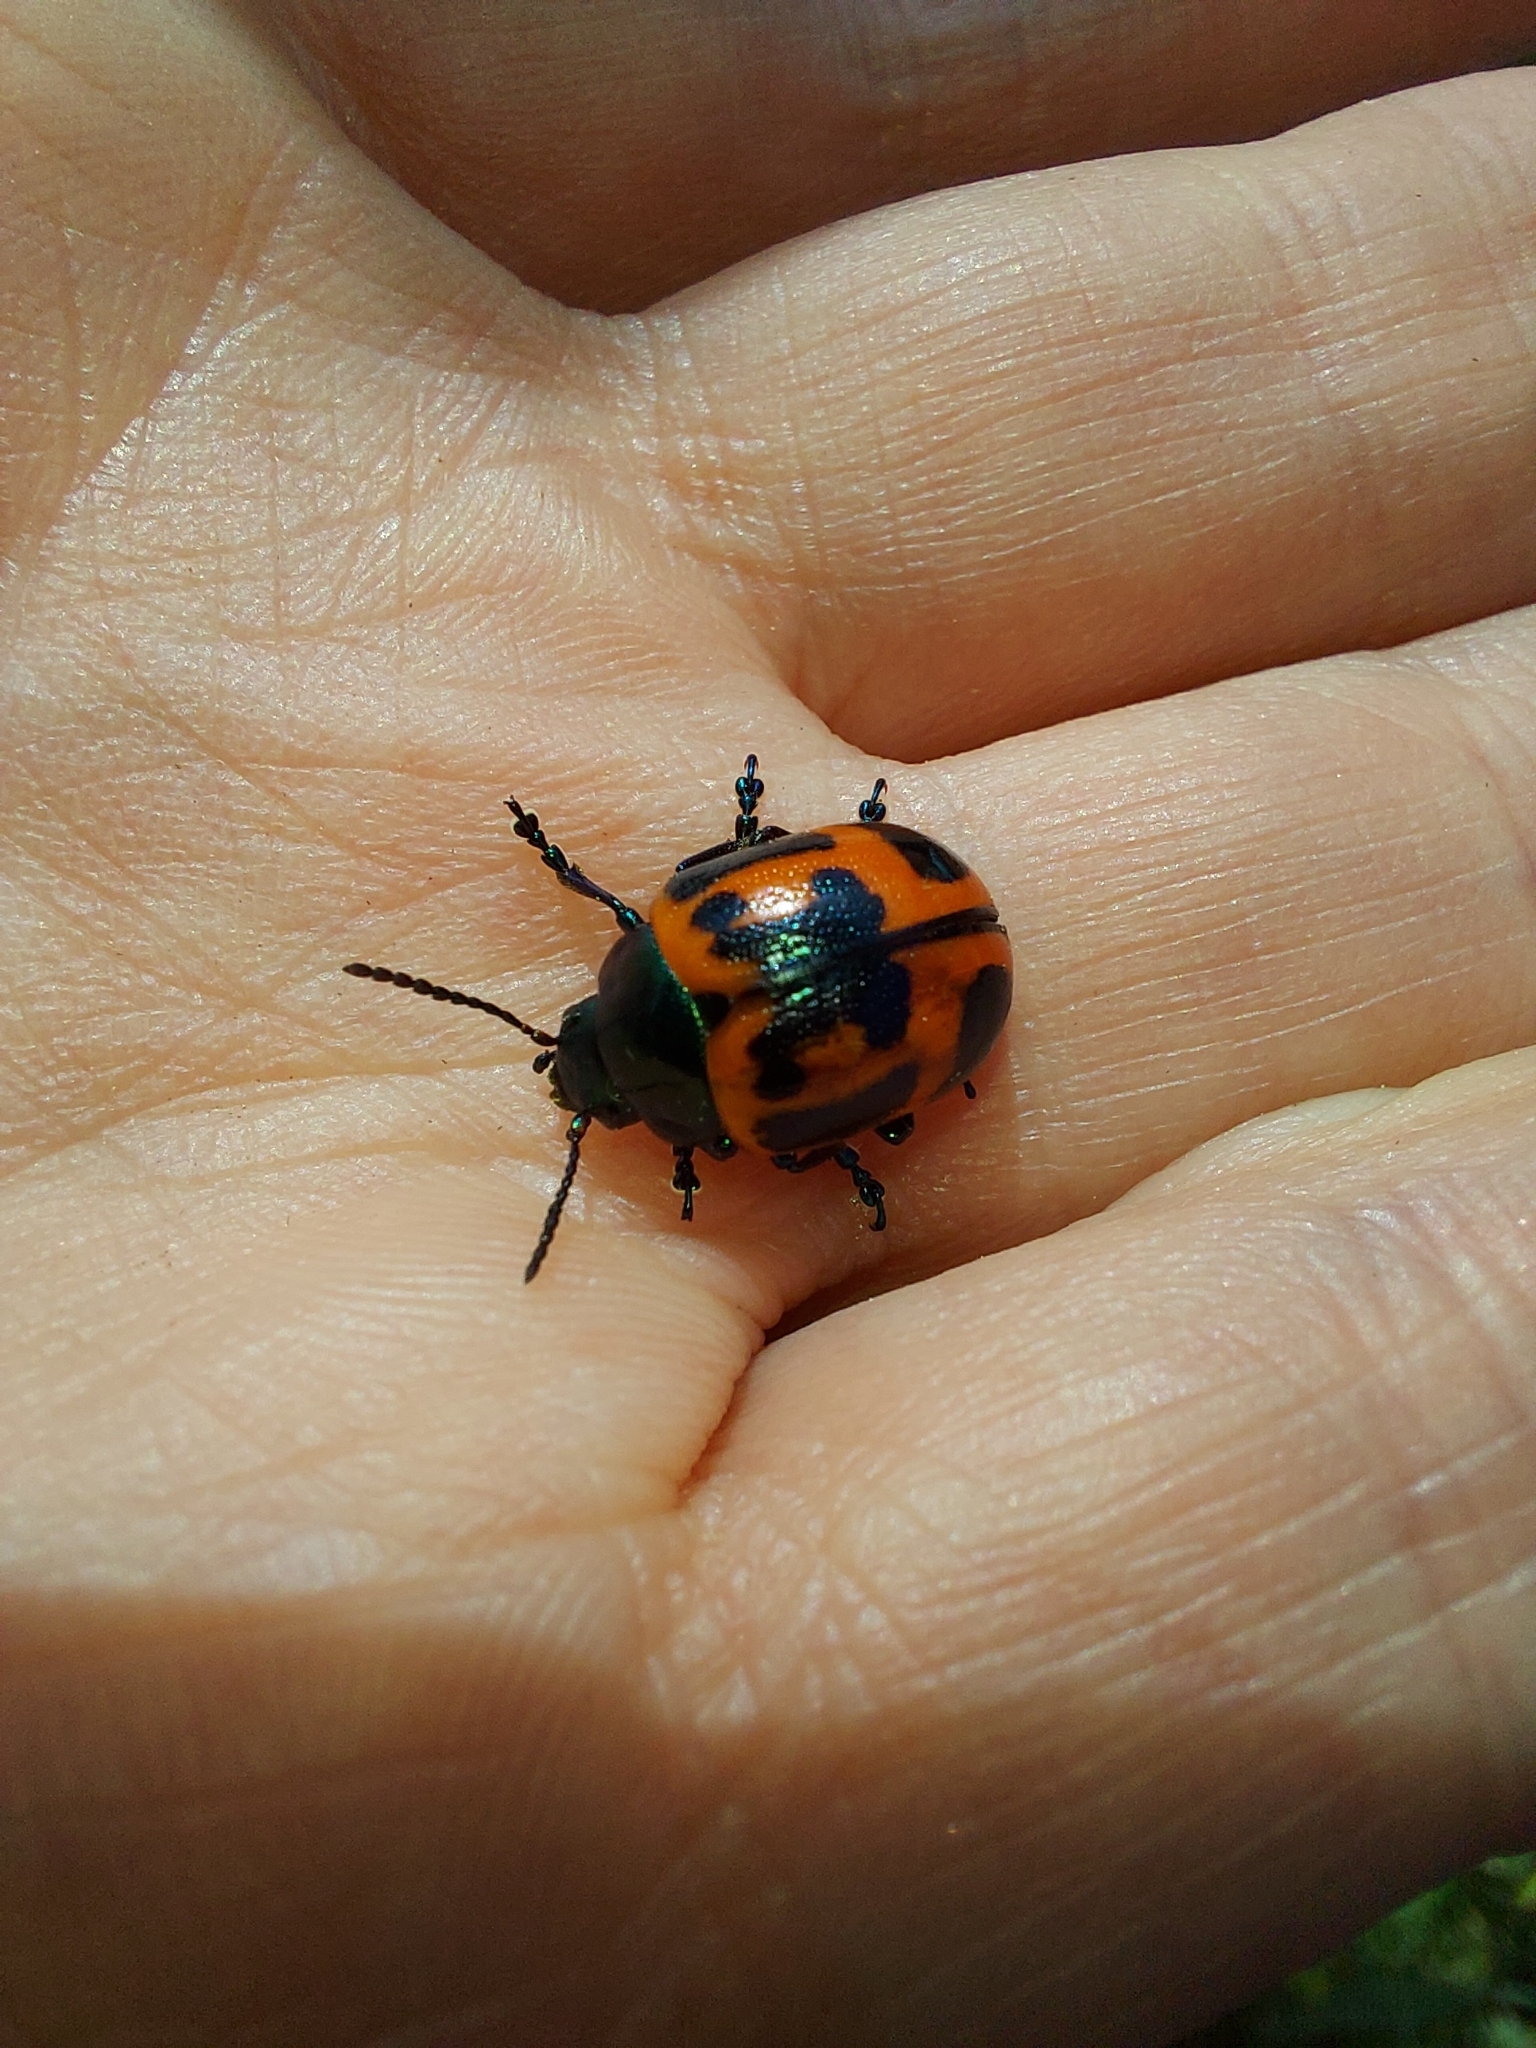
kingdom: Animalia
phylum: Arthropoda
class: Insecta
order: Coleoptera
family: Chrysomelidae
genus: Labidomera
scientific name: Labidomera clivicollis
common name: Swamp milkweed leaf beetle
